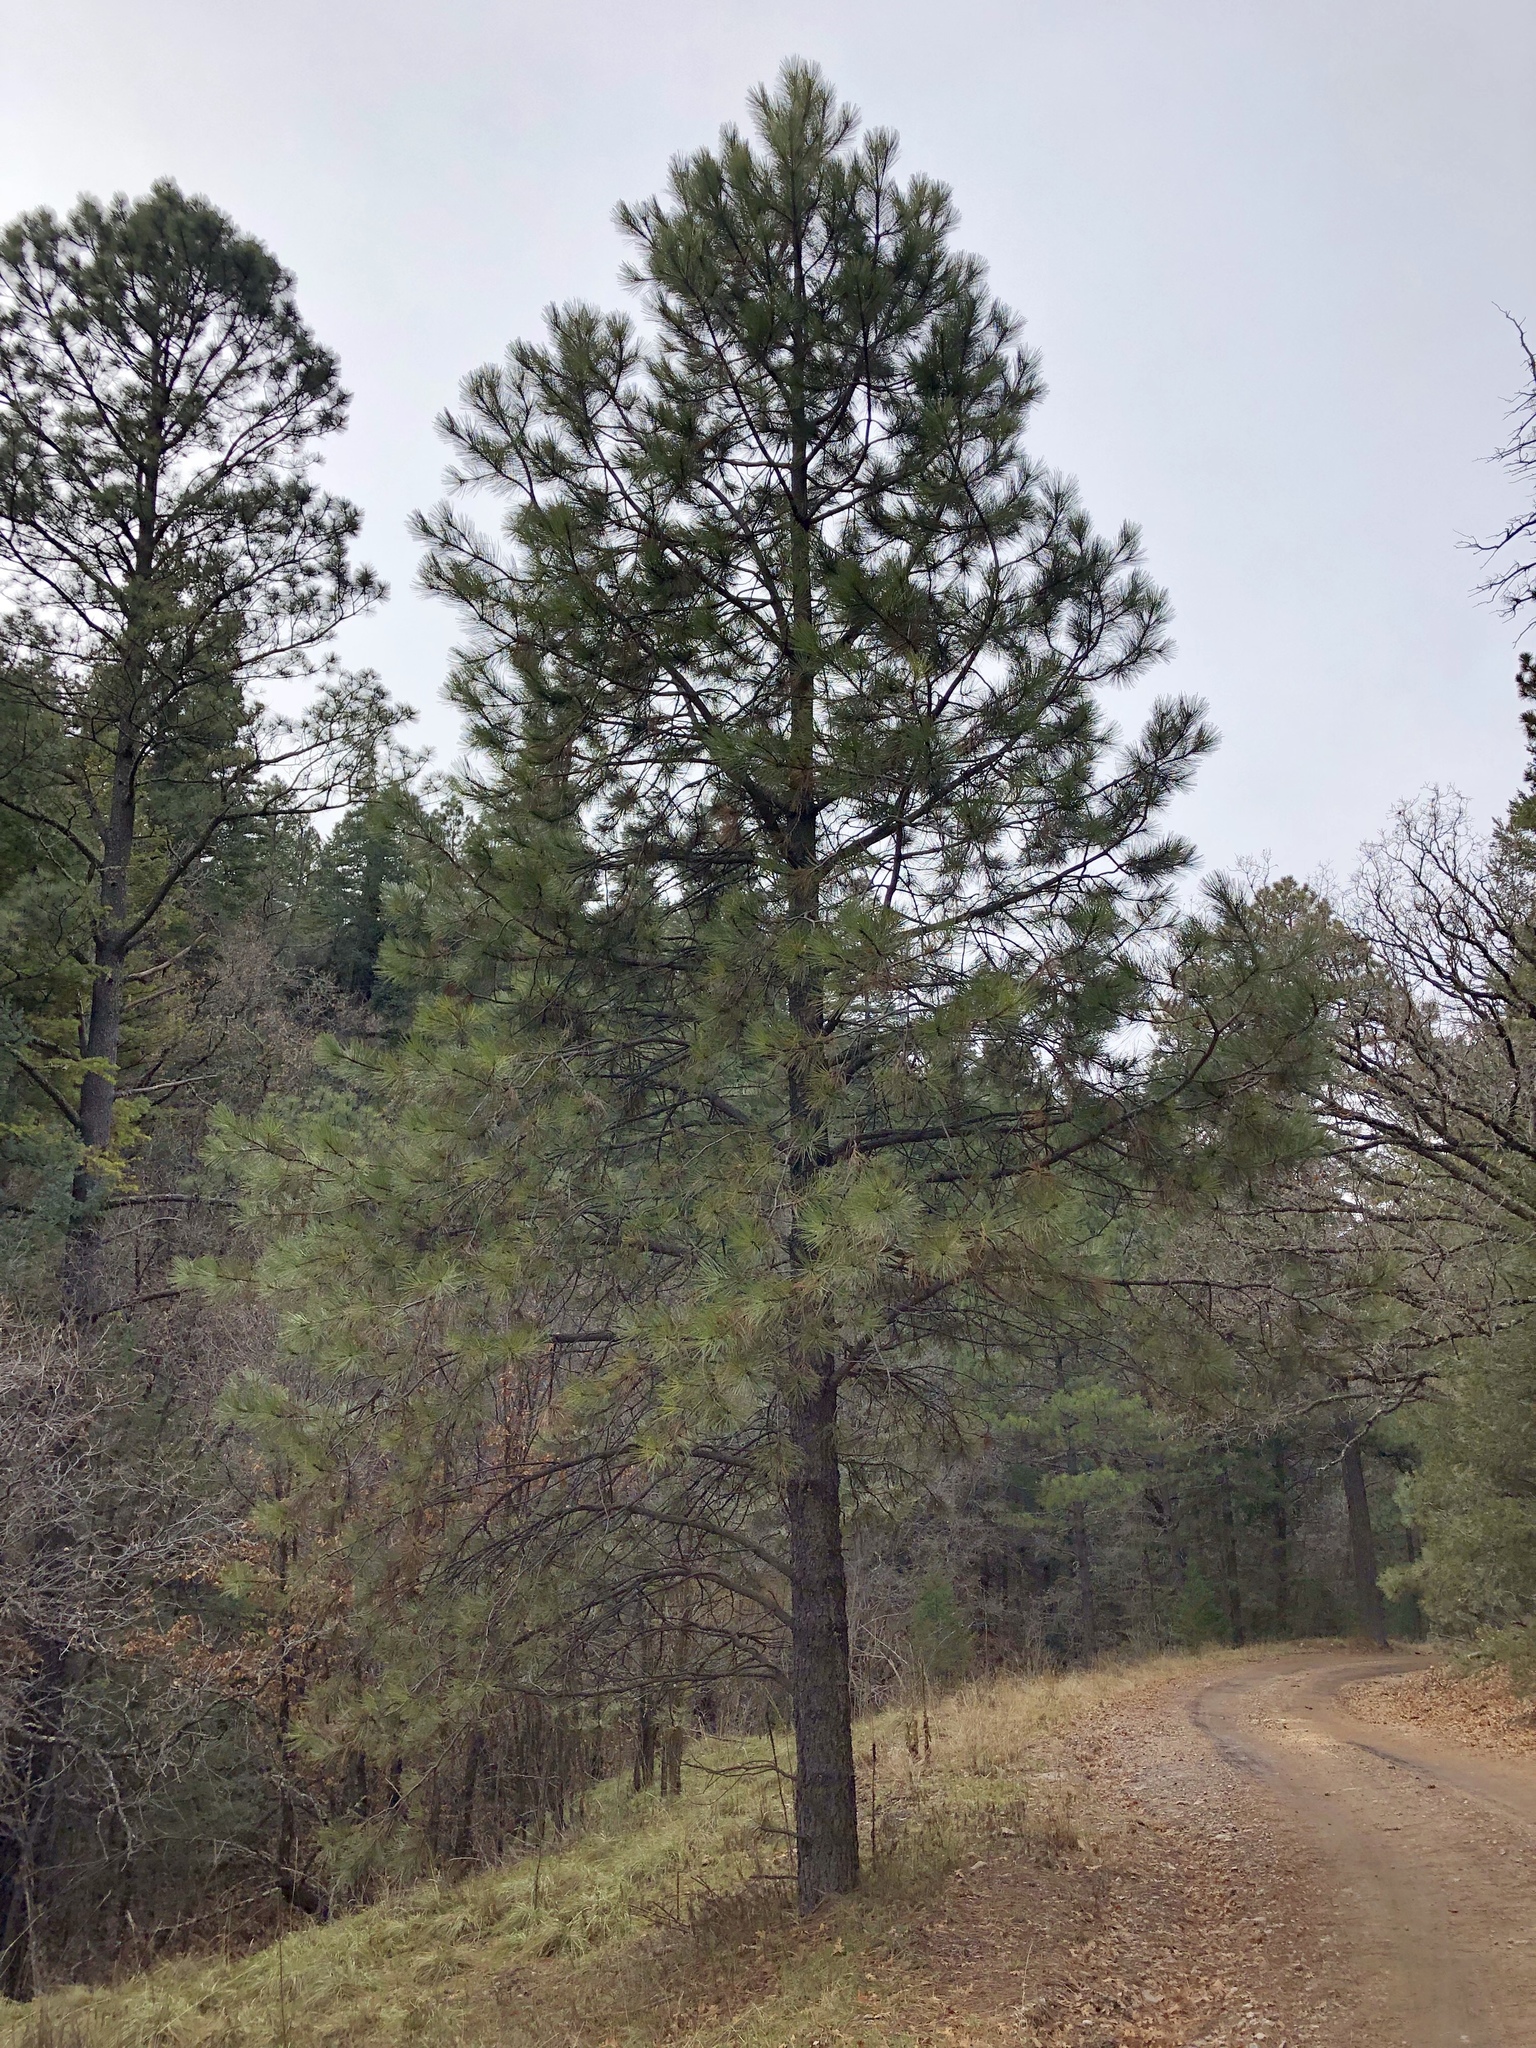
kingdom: Plantae
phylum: Tracheophyta
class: Pinopsida
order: Pinales
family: Pinaceae
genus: Pinus
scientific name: Pinus ponderosa
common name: Western yellow-pine
